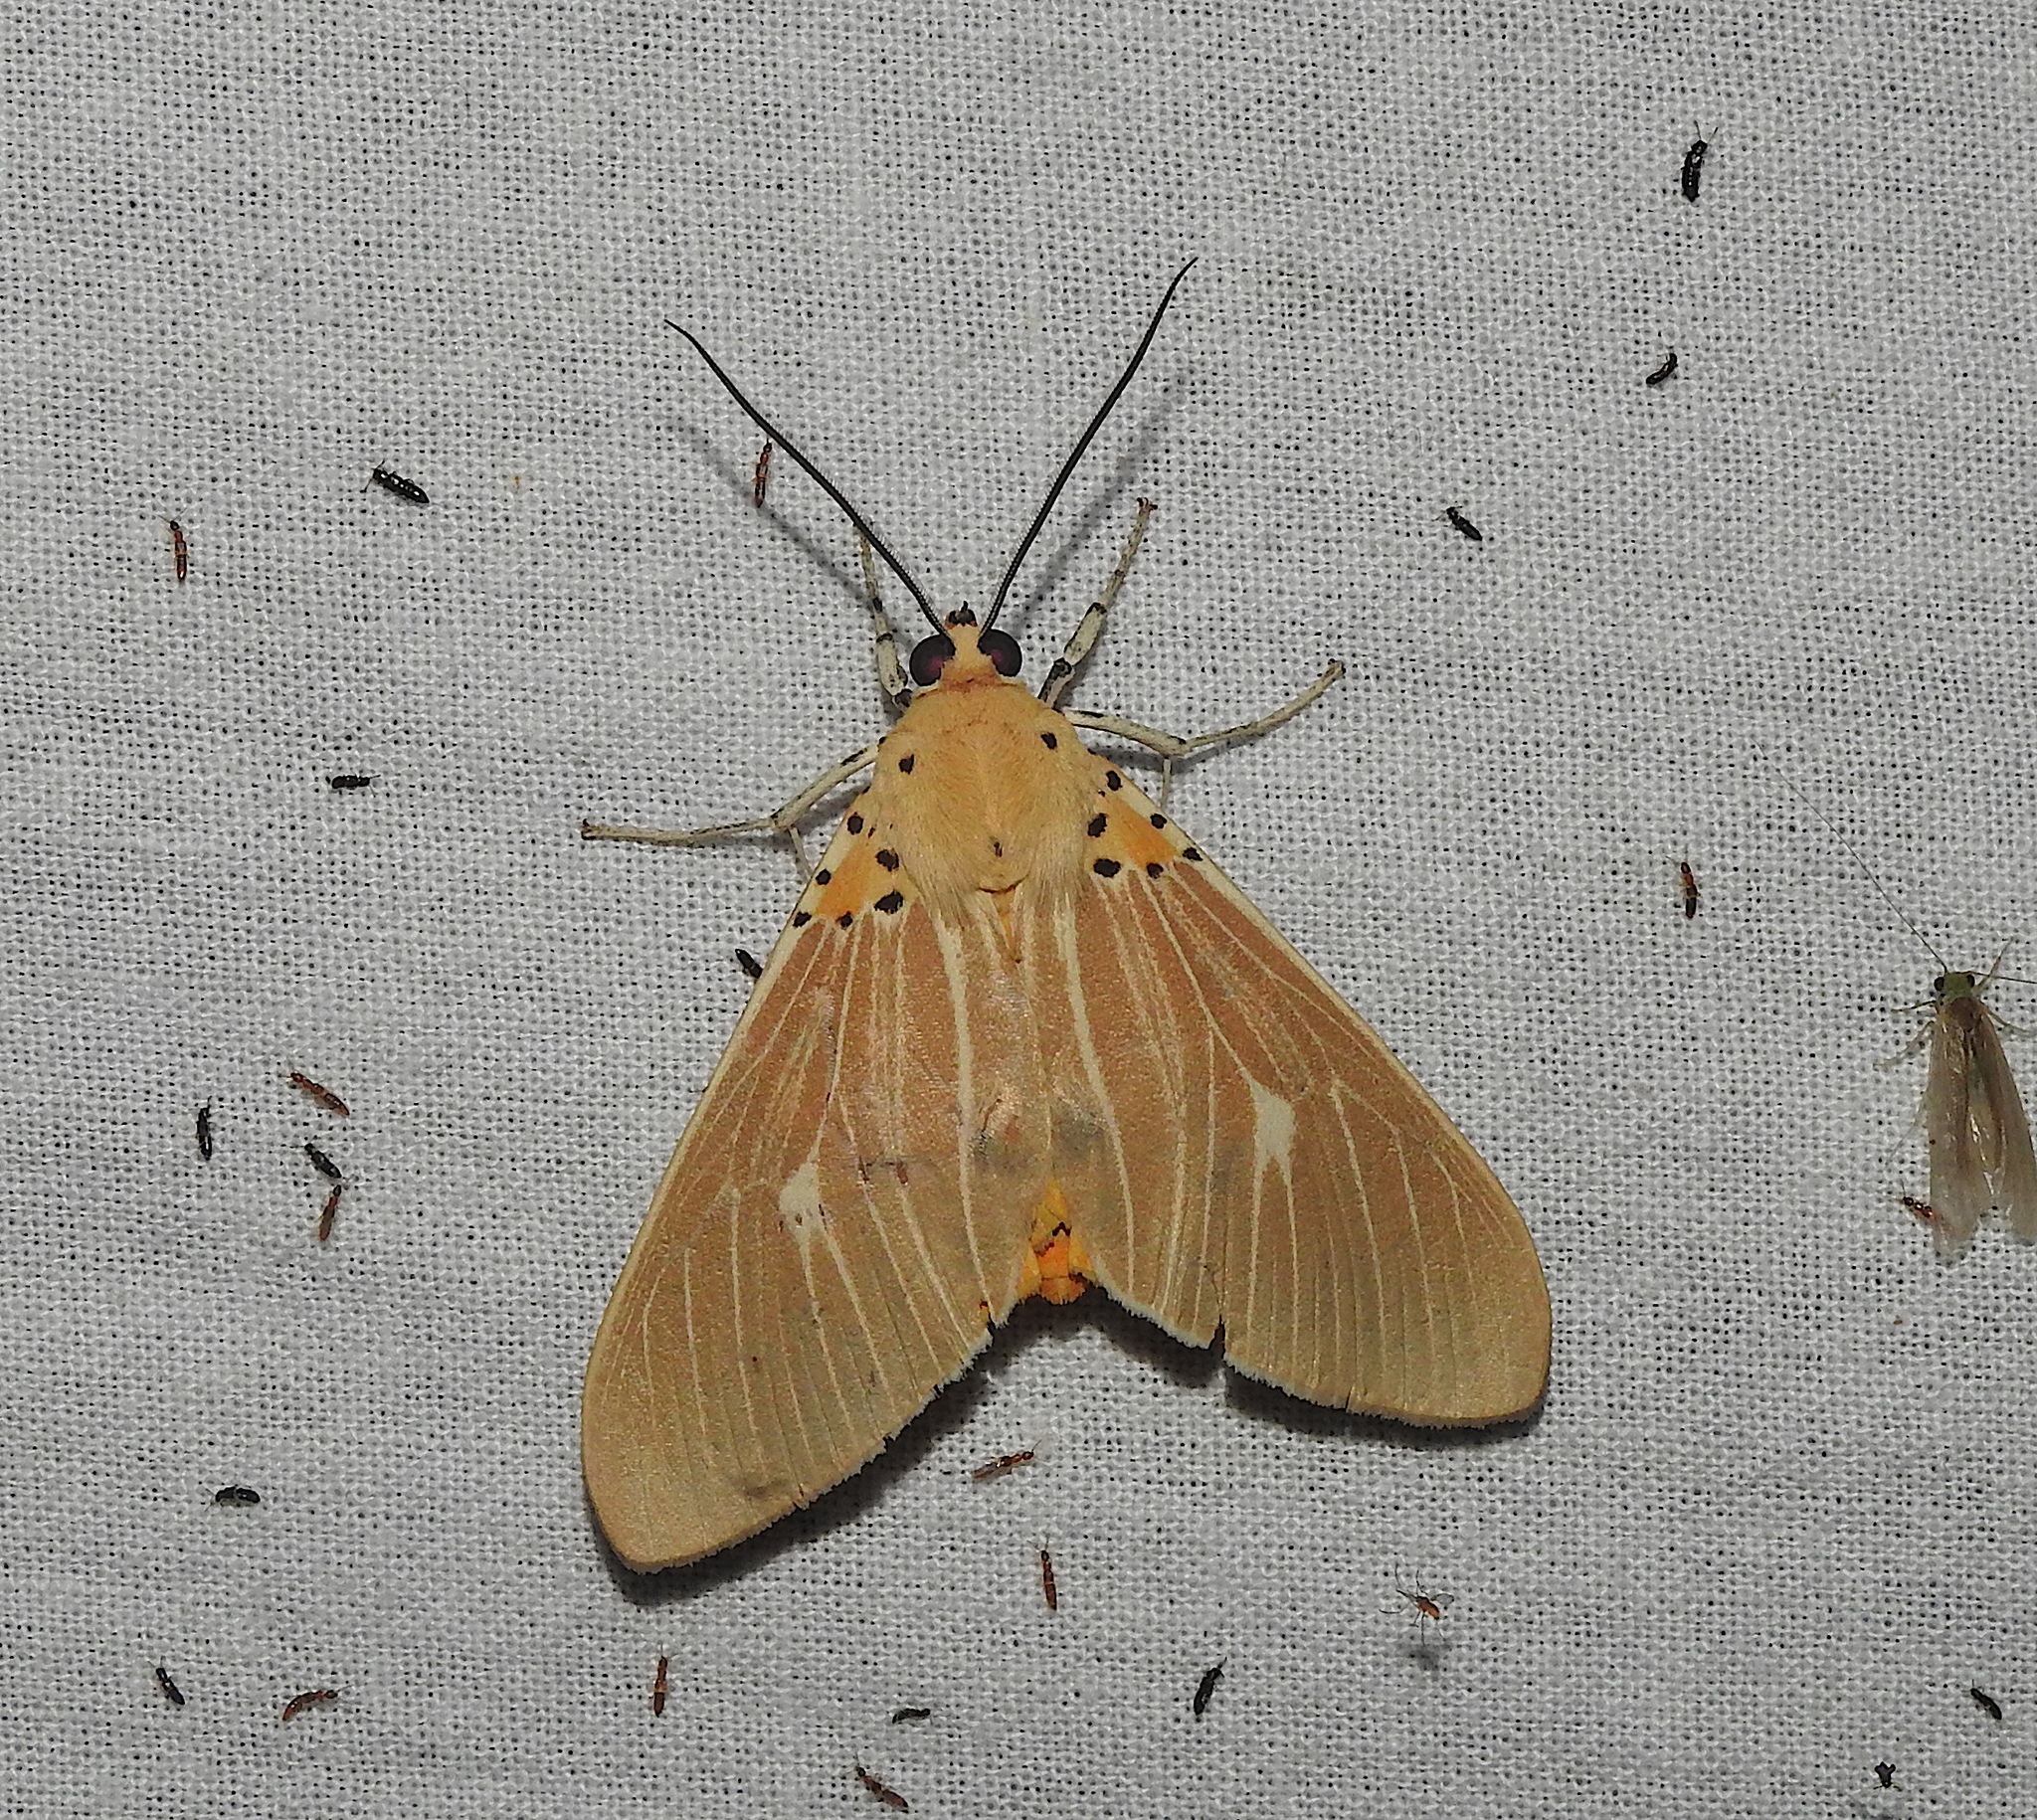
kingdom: Animalia
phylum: Arthropoda
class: Insecta
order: Lepidoptera
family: Erebidae
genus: Asota
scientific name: Asota producta
